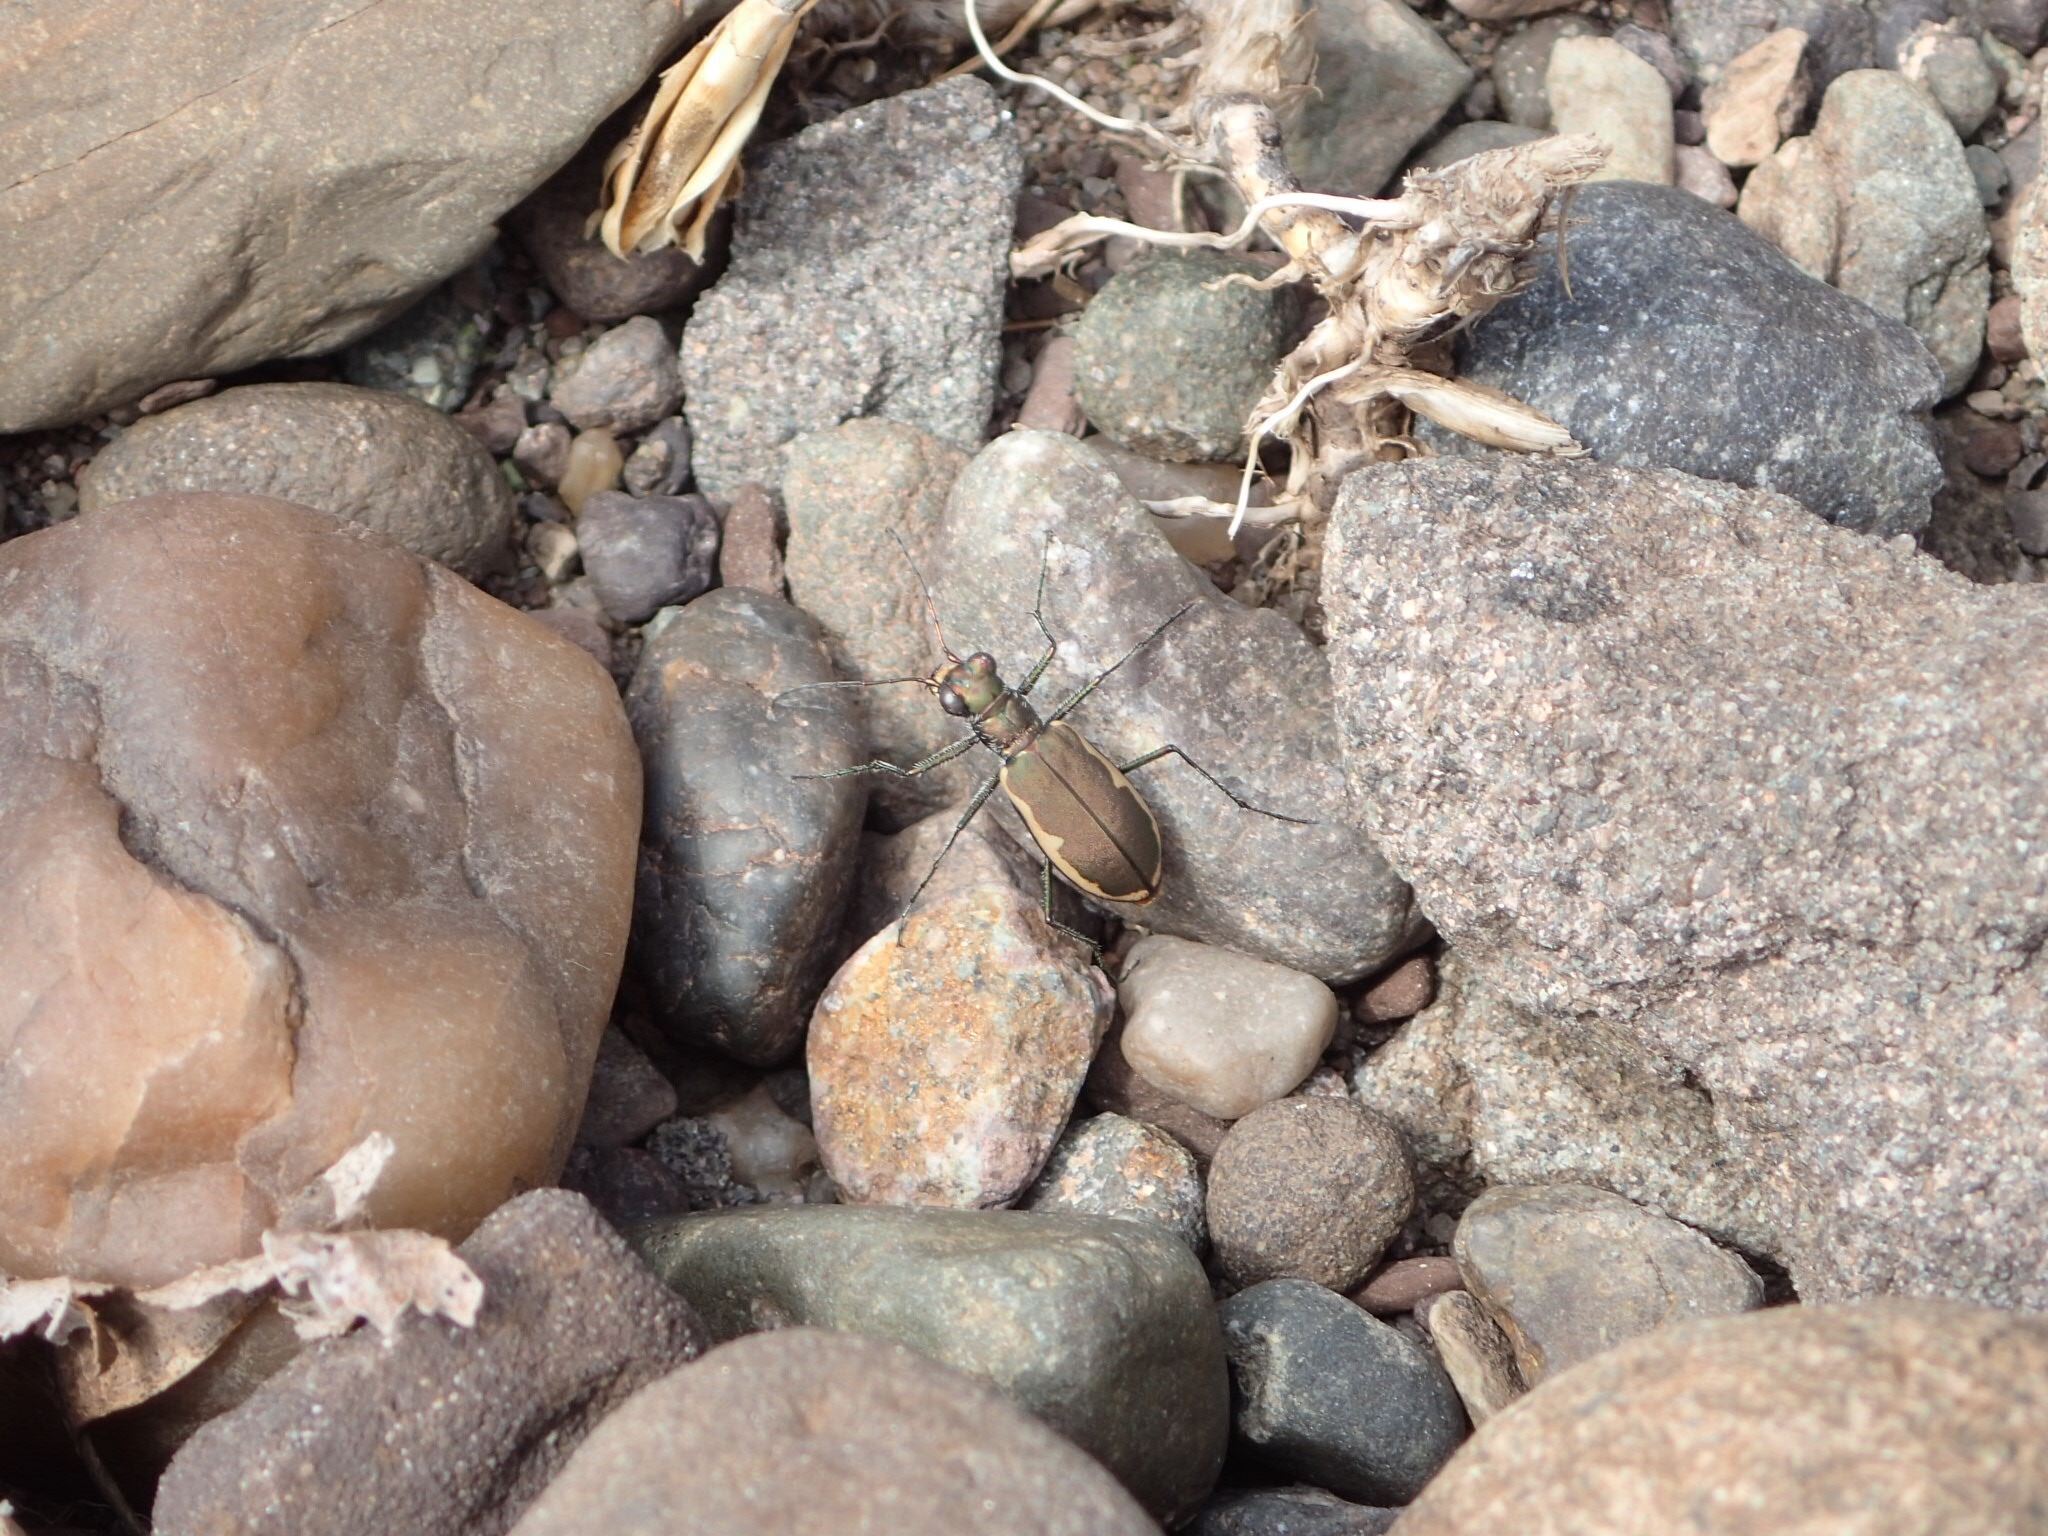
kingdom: Animalia
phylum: Arthropoda
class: Insecta
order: Coleoptera
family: Carabidae
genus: Cicindela
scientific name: Cicindela marginipennis
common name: Cobblestone tiger beetle
